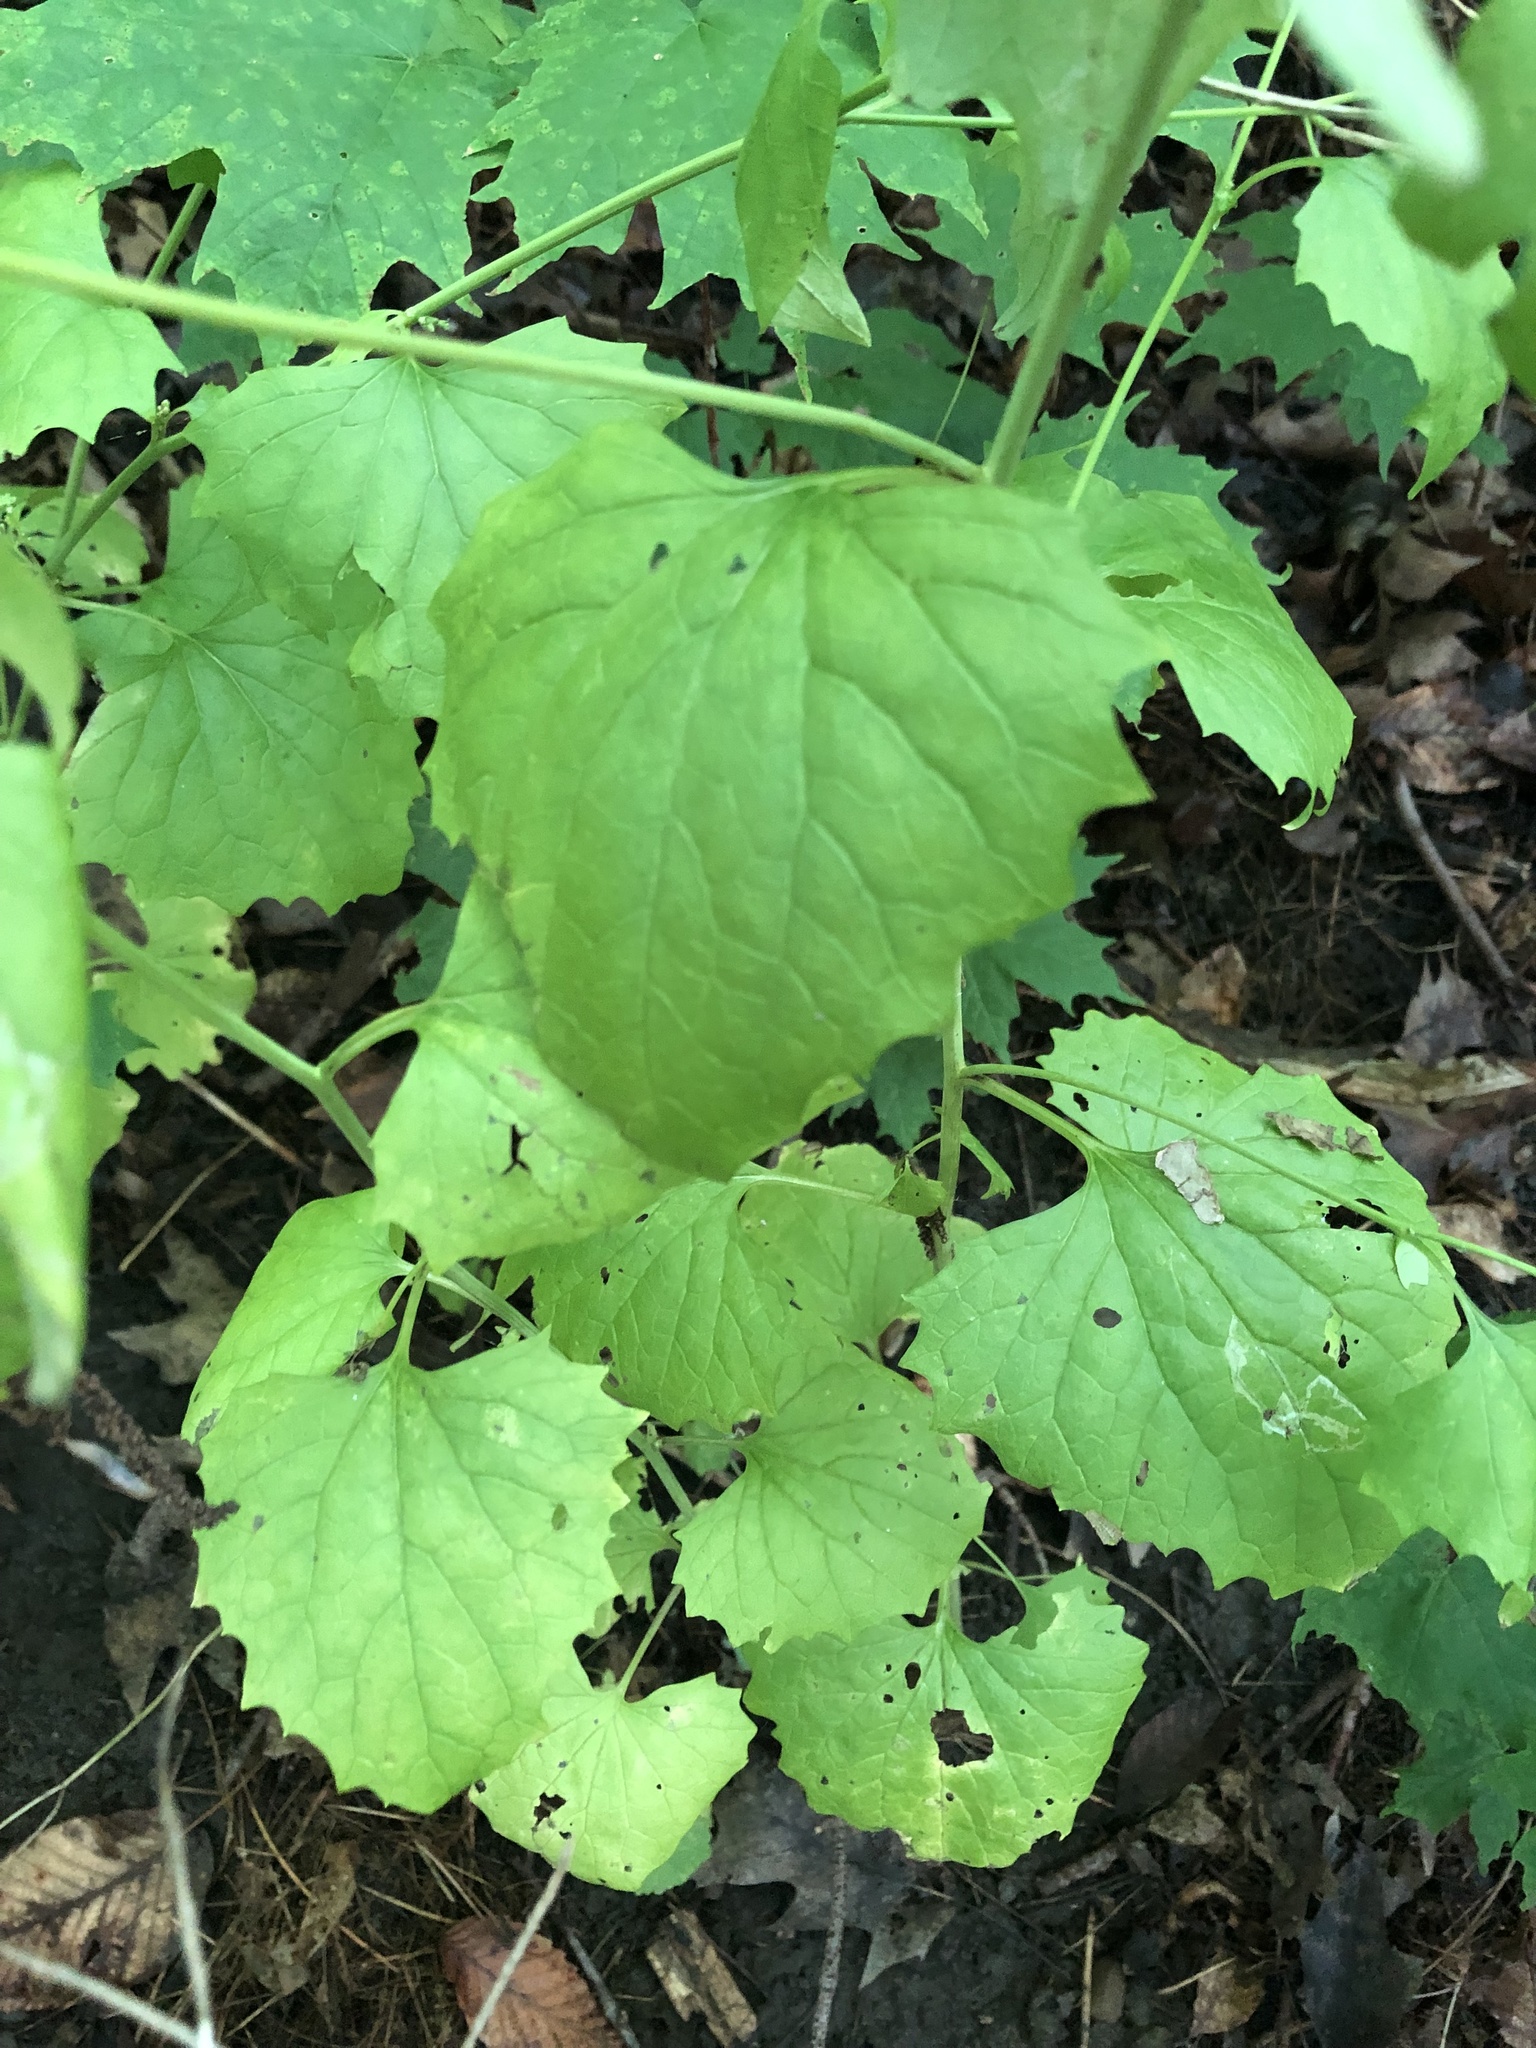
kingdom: Plantae
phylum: Tracheophyta
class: Magnoliopsida
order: Brassicales
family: Brassicaceae
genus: Alliaria
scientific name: Alliaria petiolata
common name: Garlic mustard
